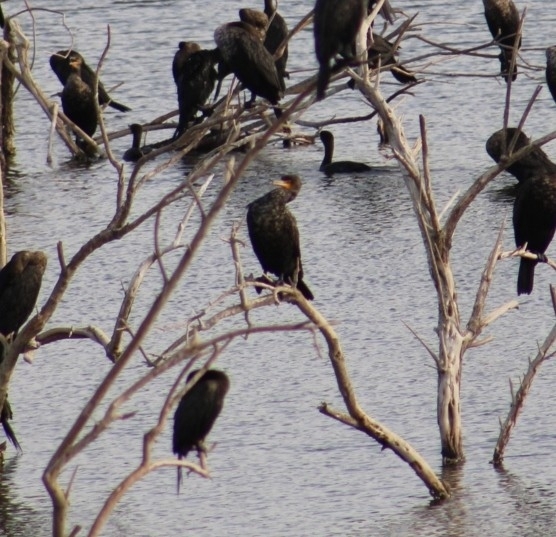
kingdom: Animalia
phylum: Chordata
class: Aves
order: Suliformes
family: Phalacrocoracidae
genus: Phalacrocorax
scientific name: Phalacrocorax auritus
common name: Double-crested cormorant
